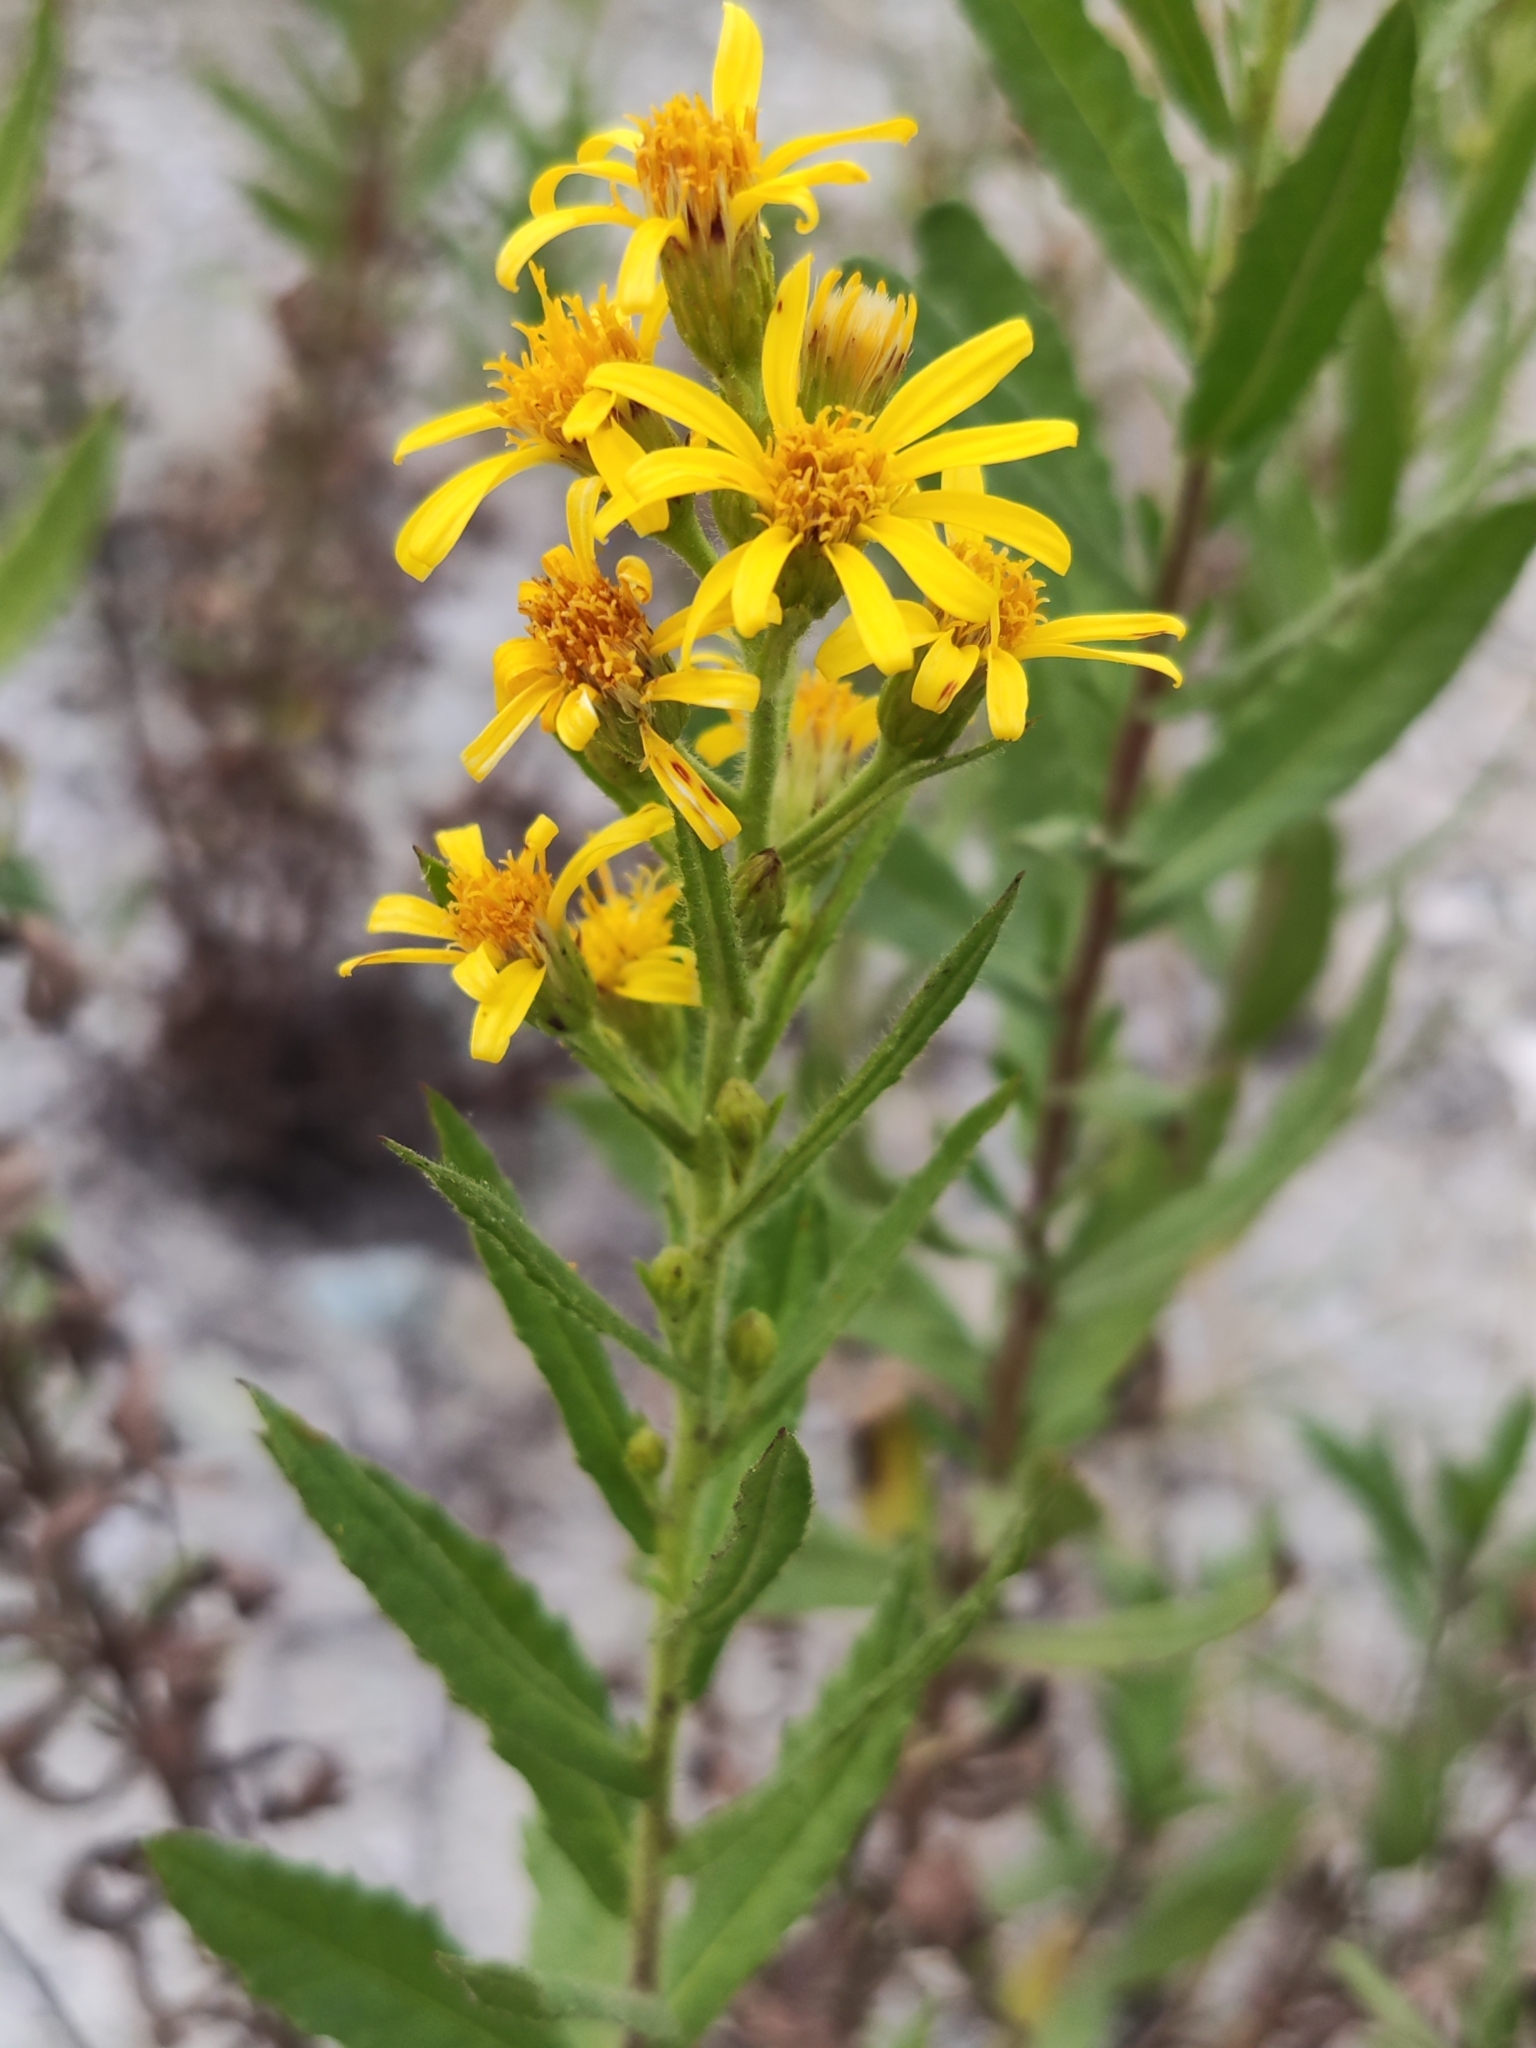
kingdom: Plantae
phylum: Tracheophyta
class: Magnoliopsida
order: Asterales
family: Asteraceae
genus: Dittrichia
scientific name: Dittrichia viscosa
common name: Woody fleabane
